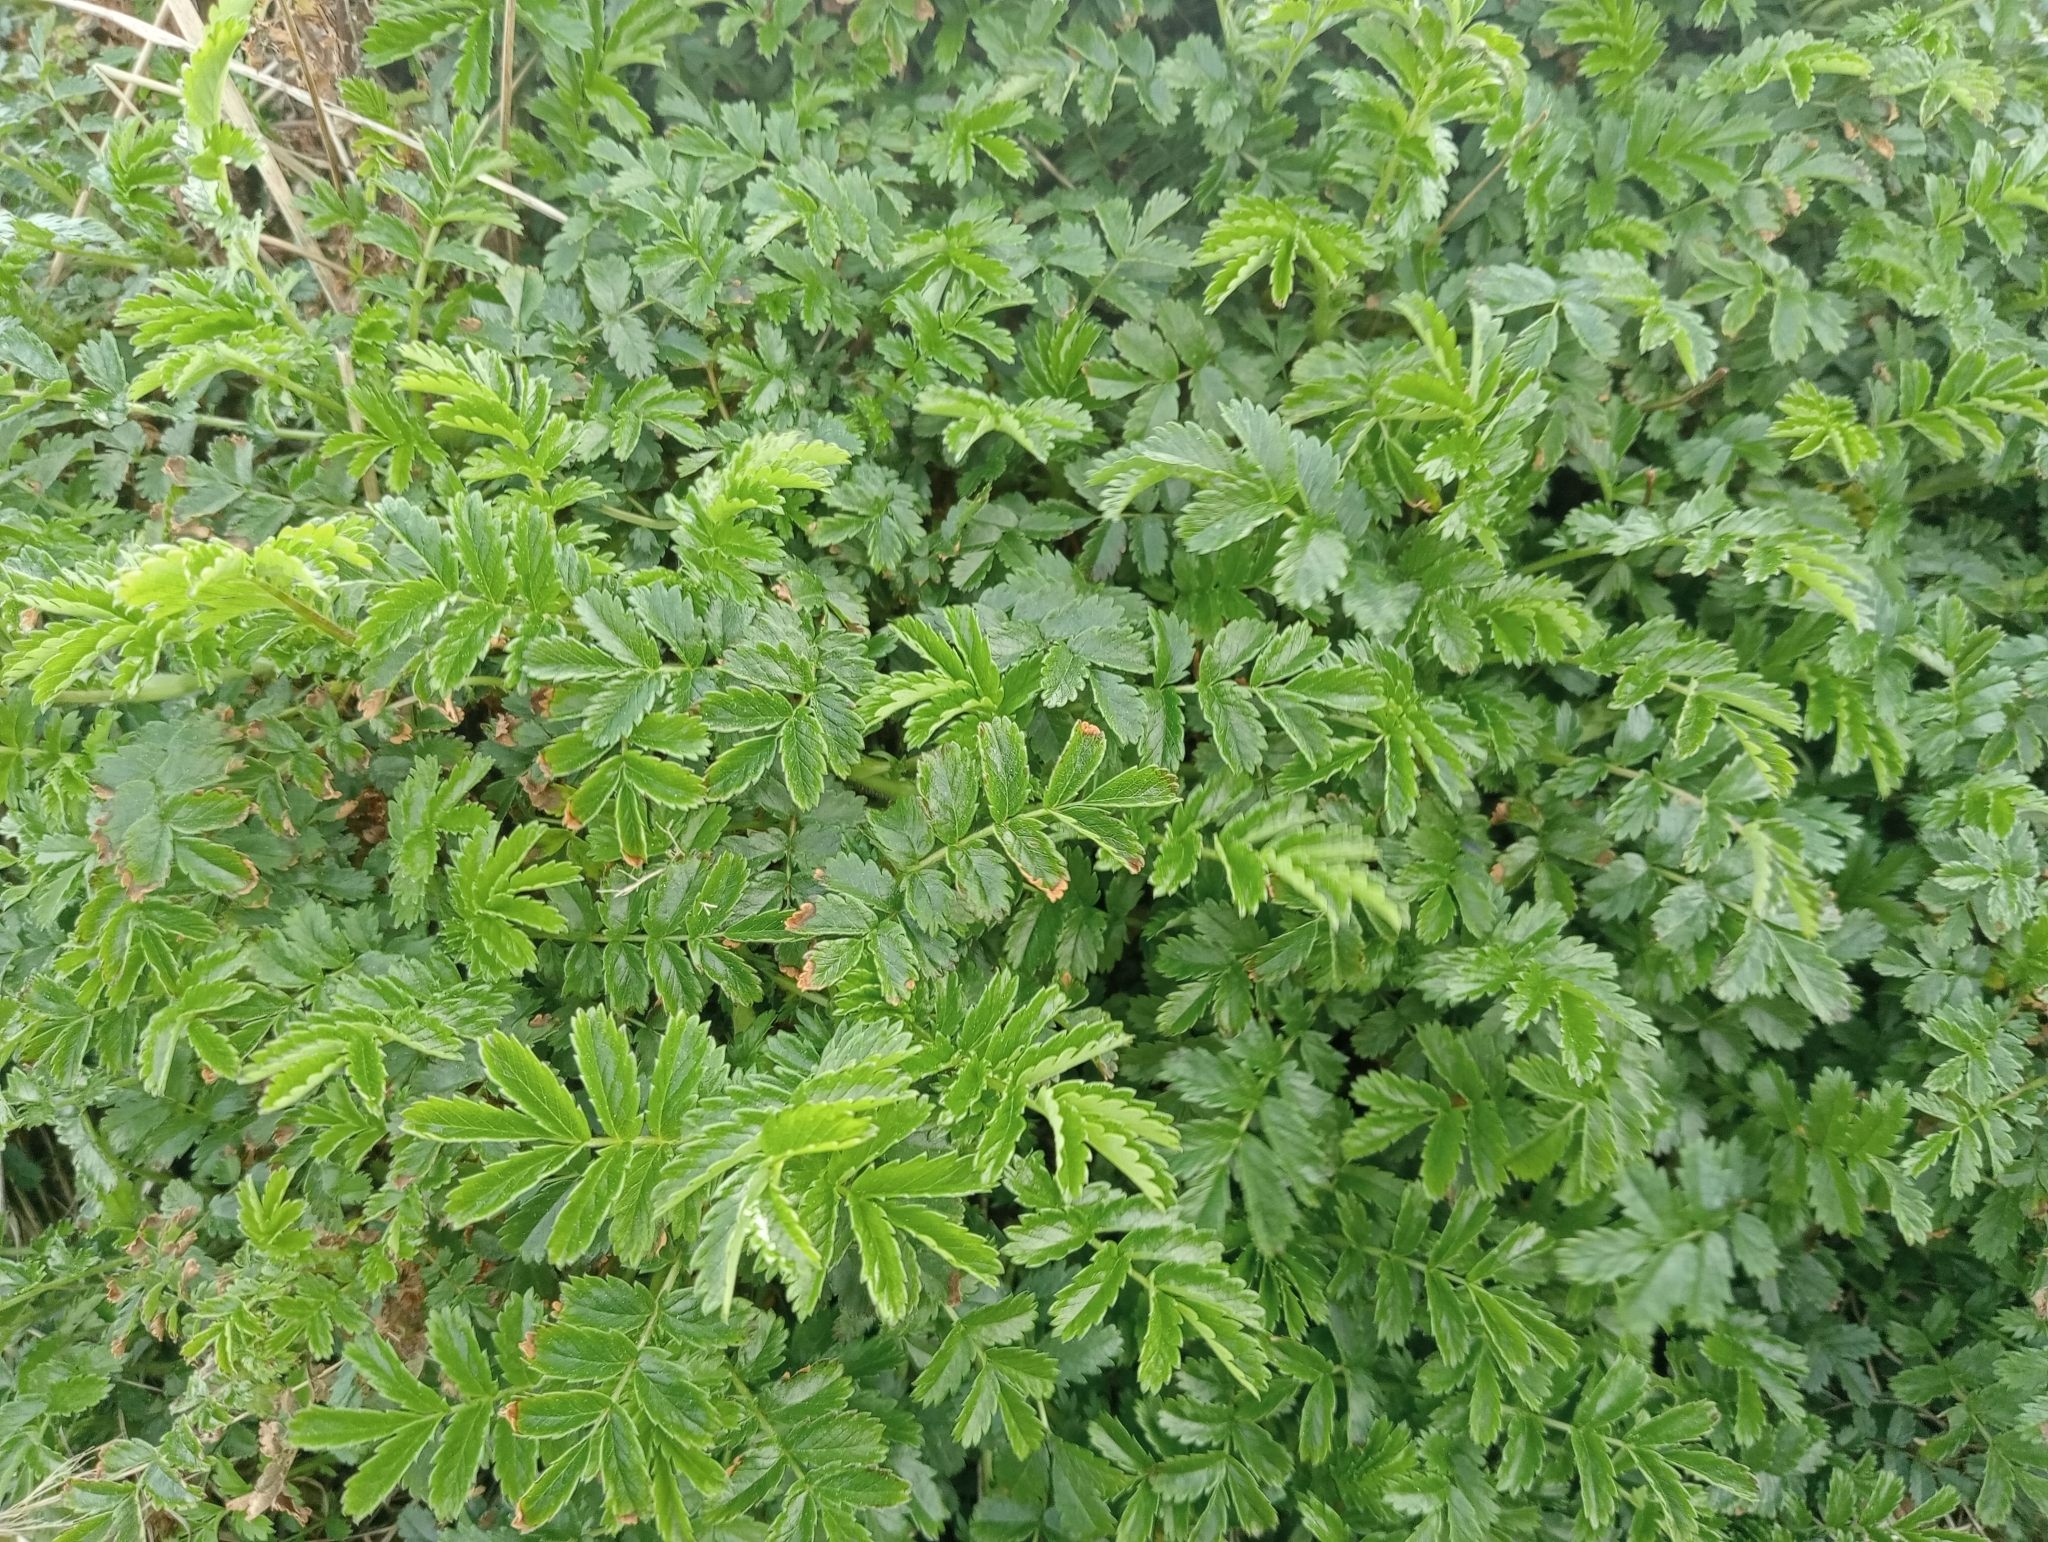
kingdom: Plantae
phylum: Tracheophyta
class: Magnoliopsida
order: Rosales
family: Rosaceae
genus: Acaena
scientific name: Acaena novae-zelandiae
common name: Pirri-pirri-bur
